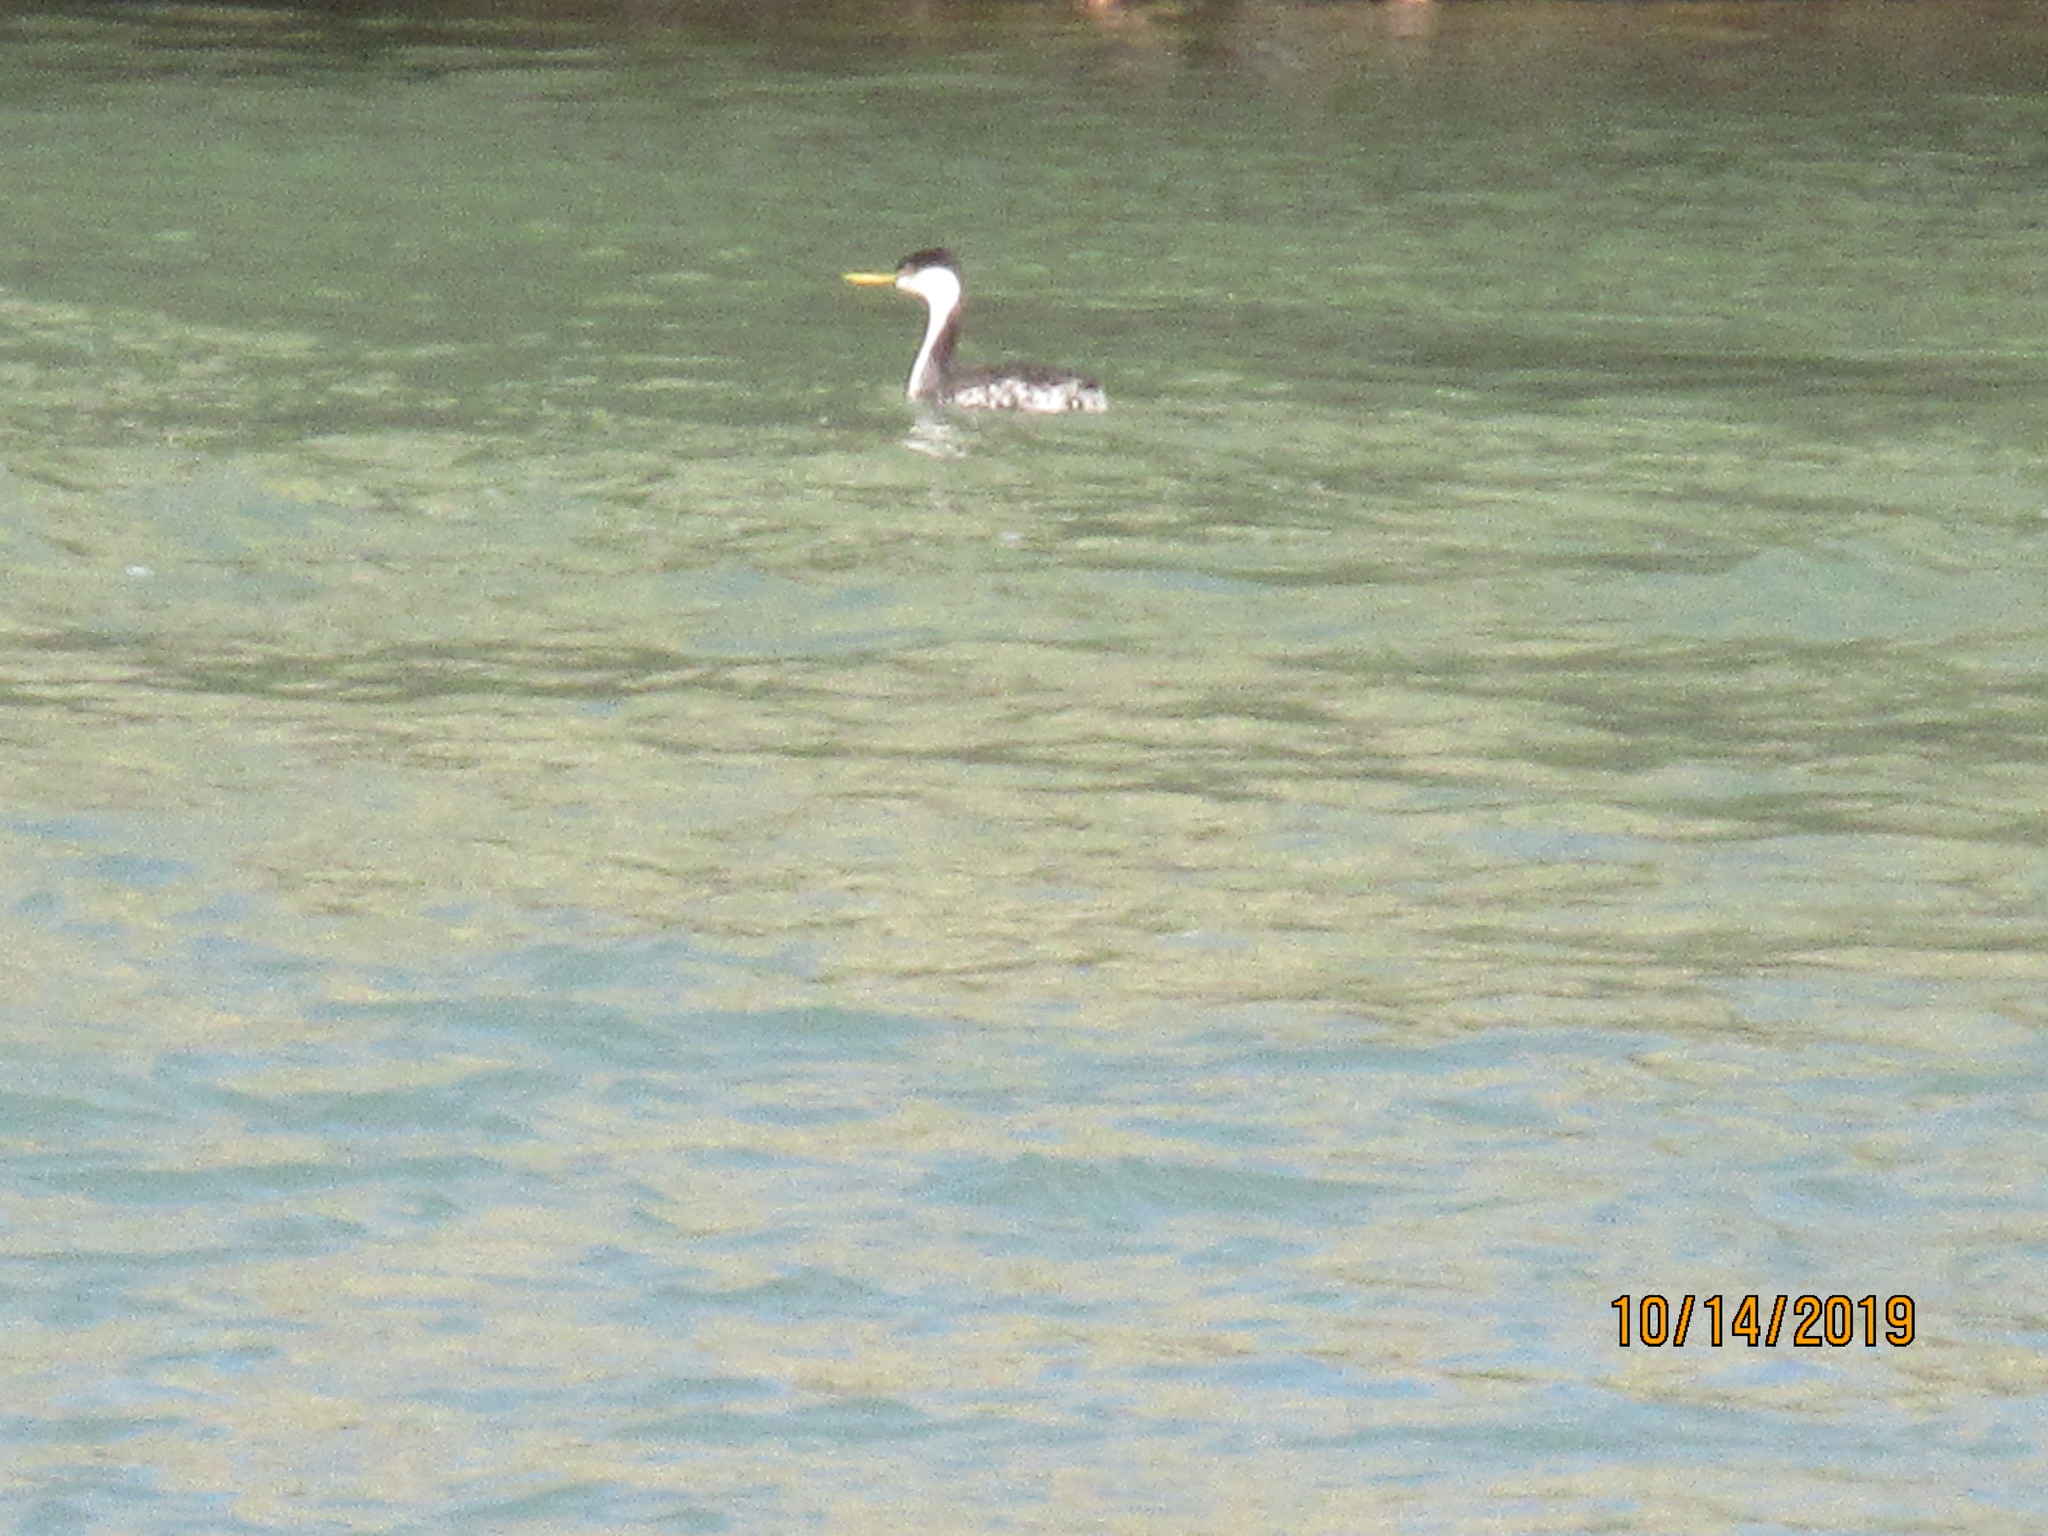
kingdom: Animalia
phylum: Chordata
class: Aves
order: Podicipediformes
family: Podicipedidae
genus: Aechmophorus
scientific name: Aechmophorus occidentalis
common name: Western grebe
